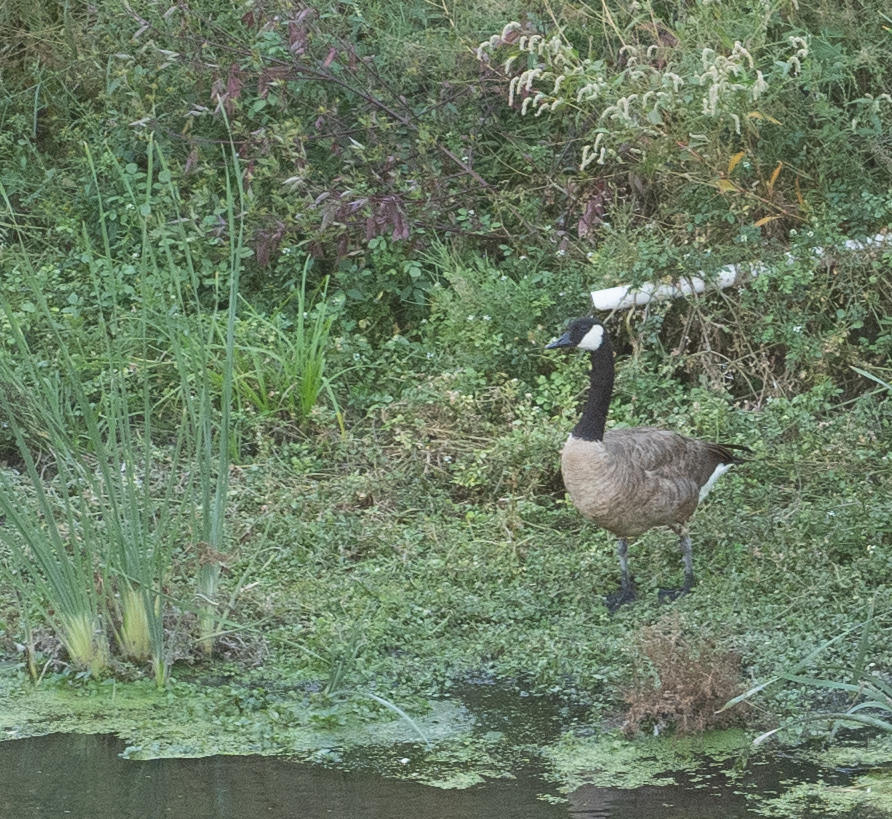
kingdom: Animalia
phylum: Chordata
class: Aves
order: Anseriformes
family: Anatidae
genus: Branta
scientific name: Branta canadensis
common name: Canada goose
